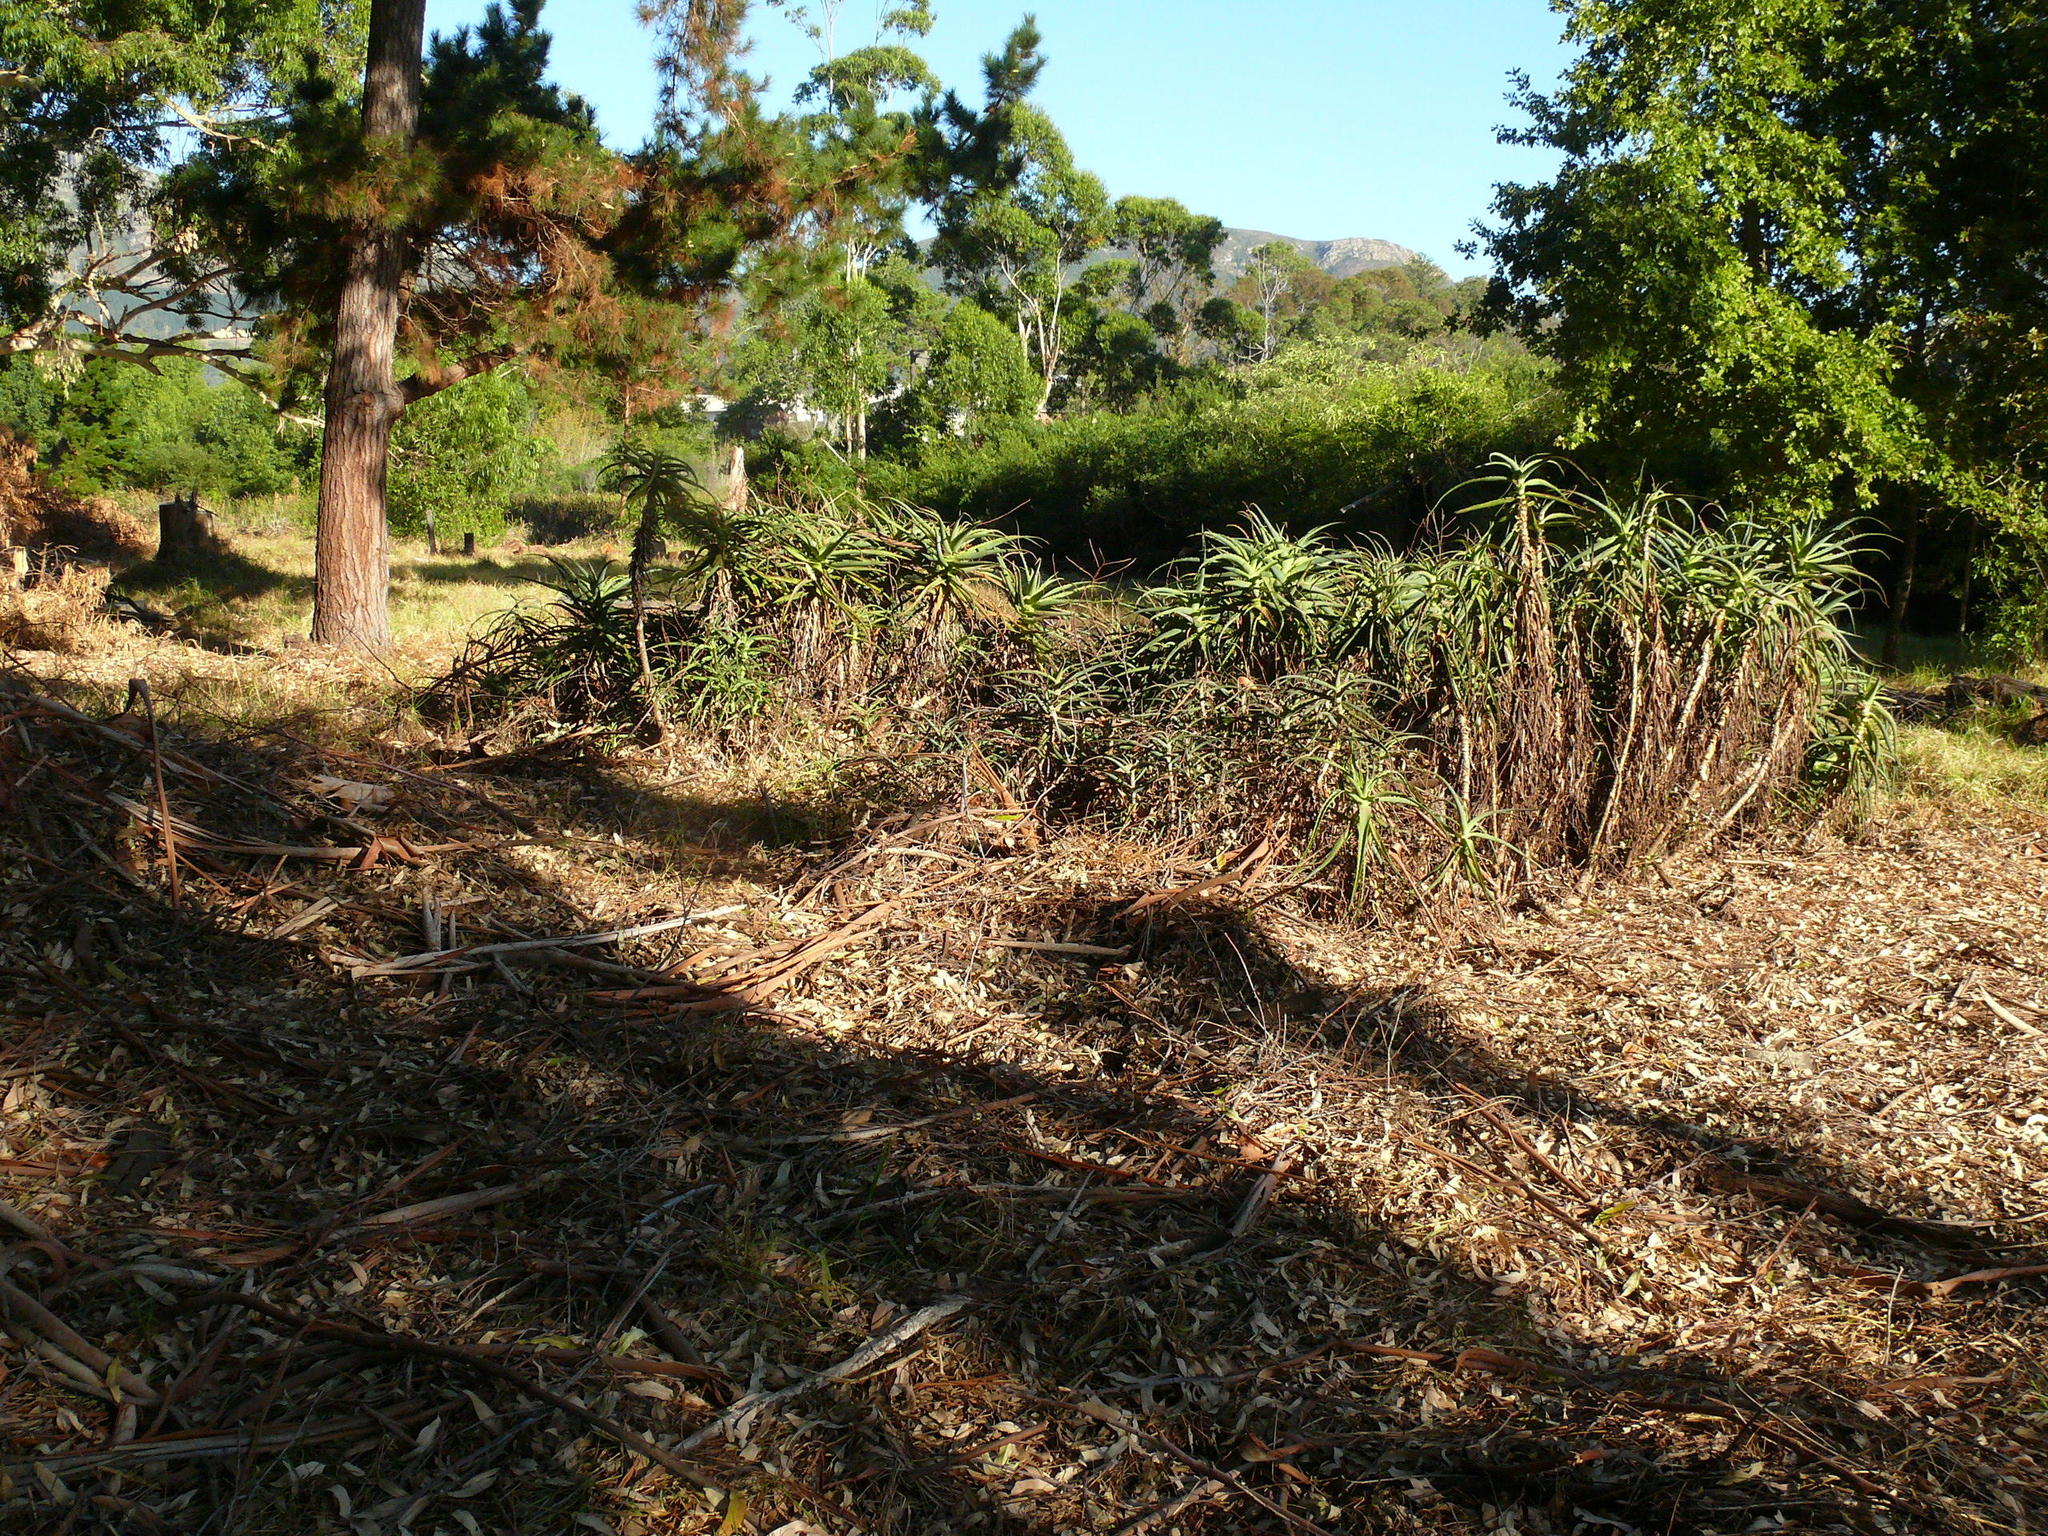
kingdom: Plantae
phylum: Tracheophyta
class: Liliopsida
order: Asparagales
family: Asphodelaceae
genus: Aloe
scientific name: Aloe arborescens
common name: Candelabra aloe
